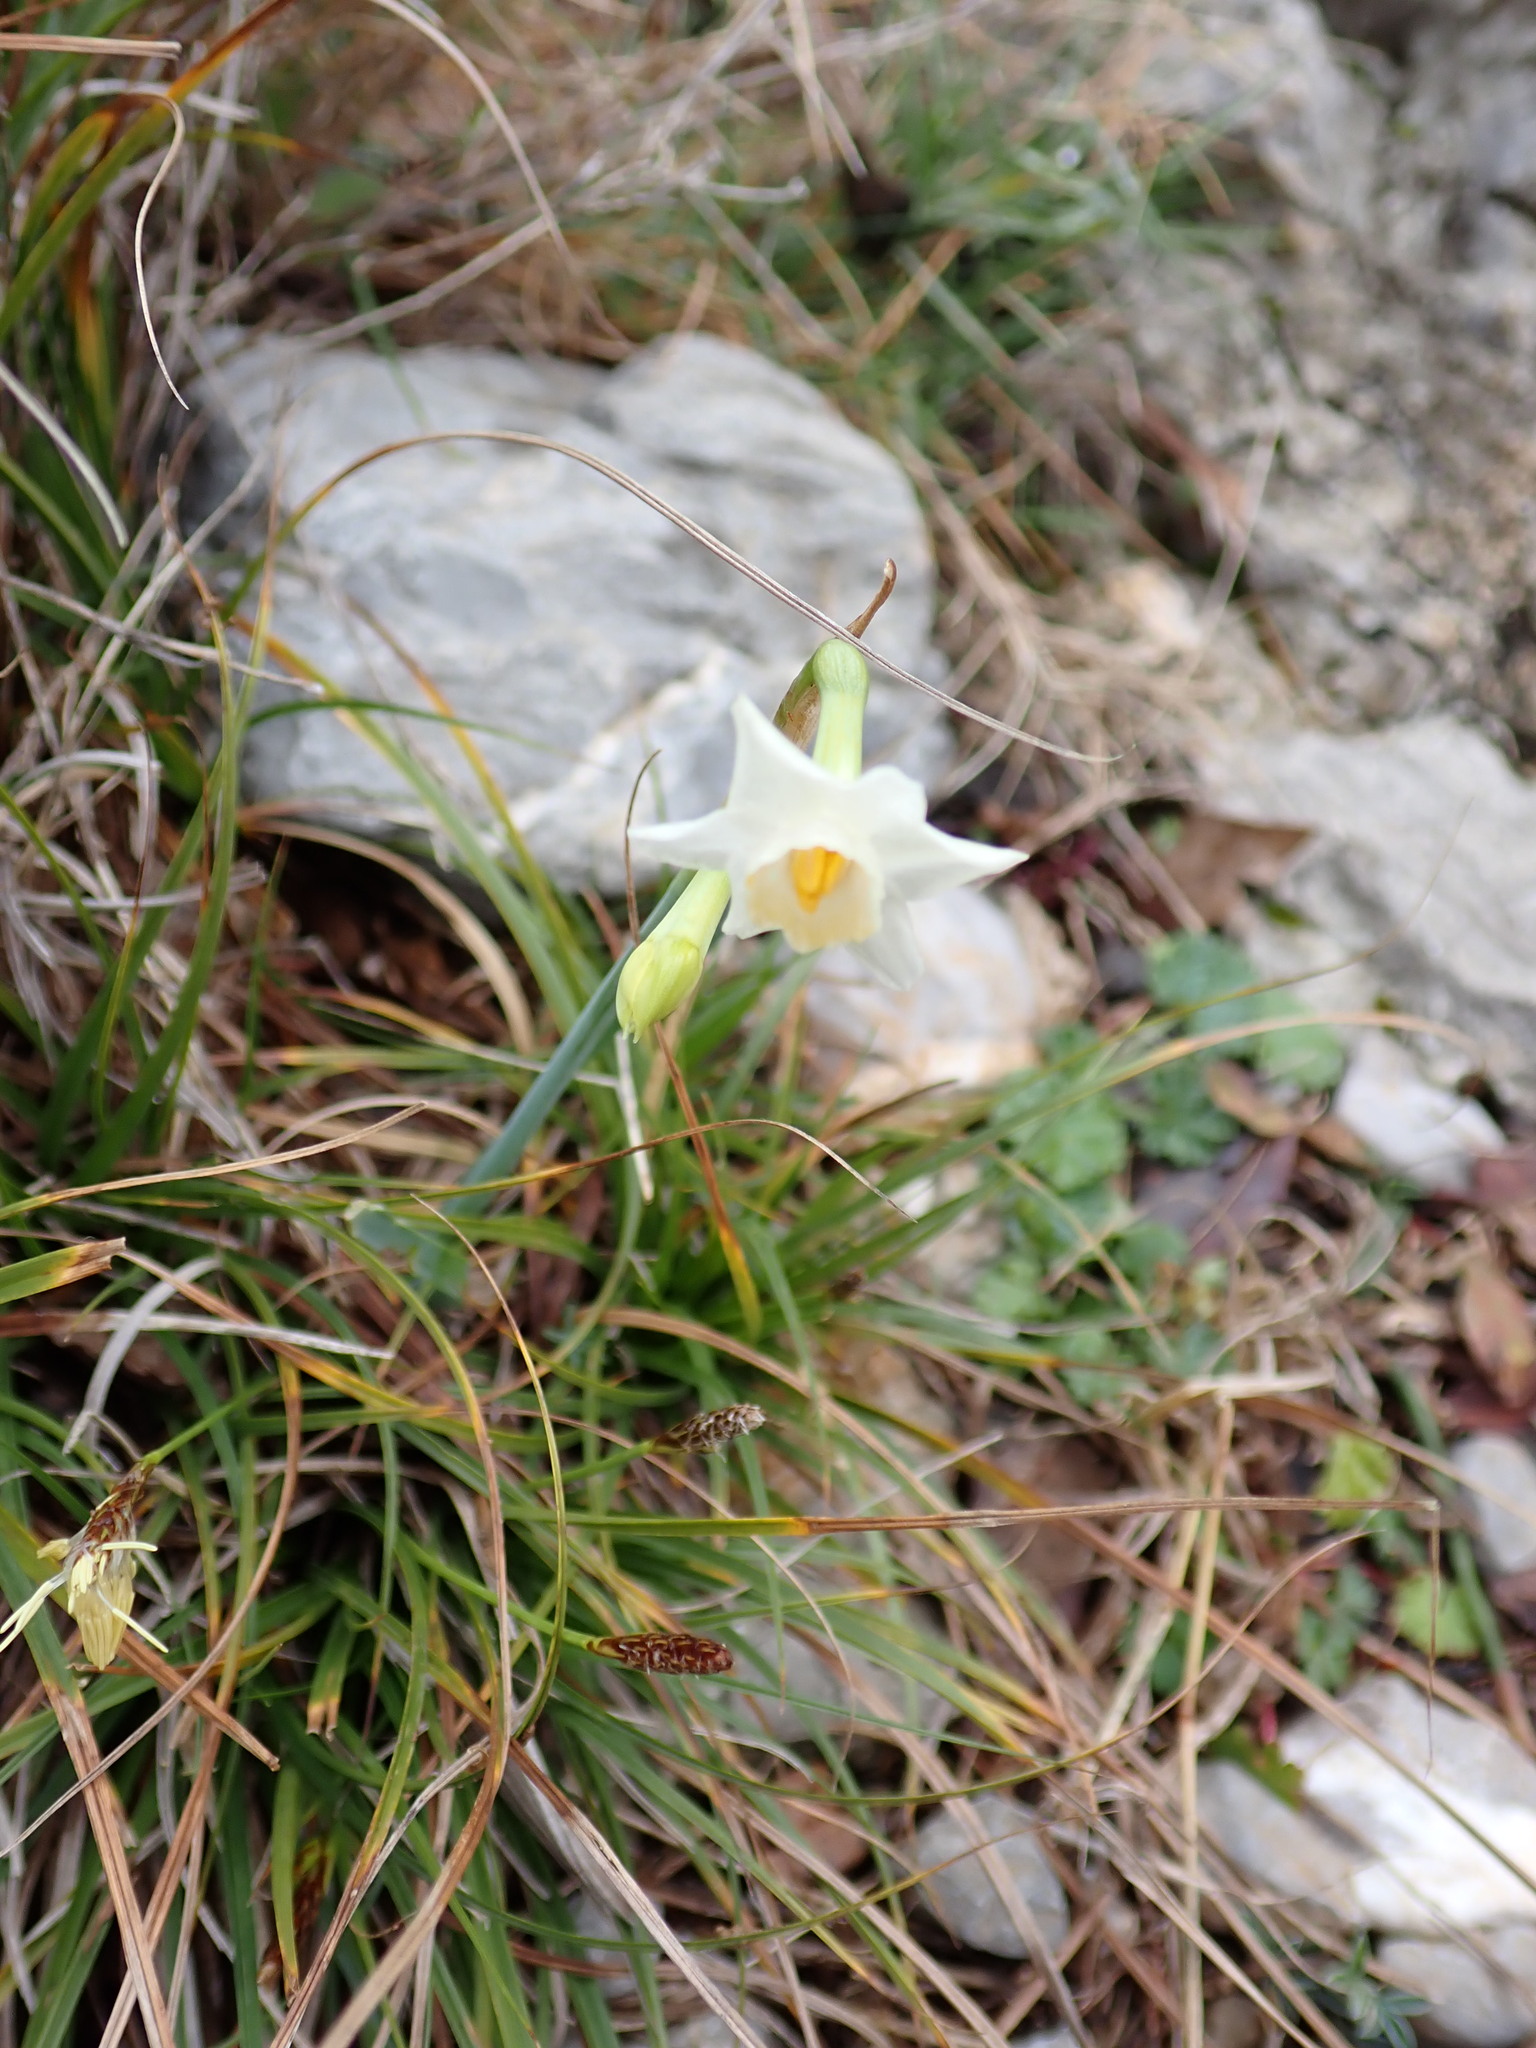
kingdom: Plantae
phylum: Tracheophyta
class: Liliopsida
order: Asparagales
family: Amaryllidaceae
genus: Narcissus
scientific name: Narcissus dubius
